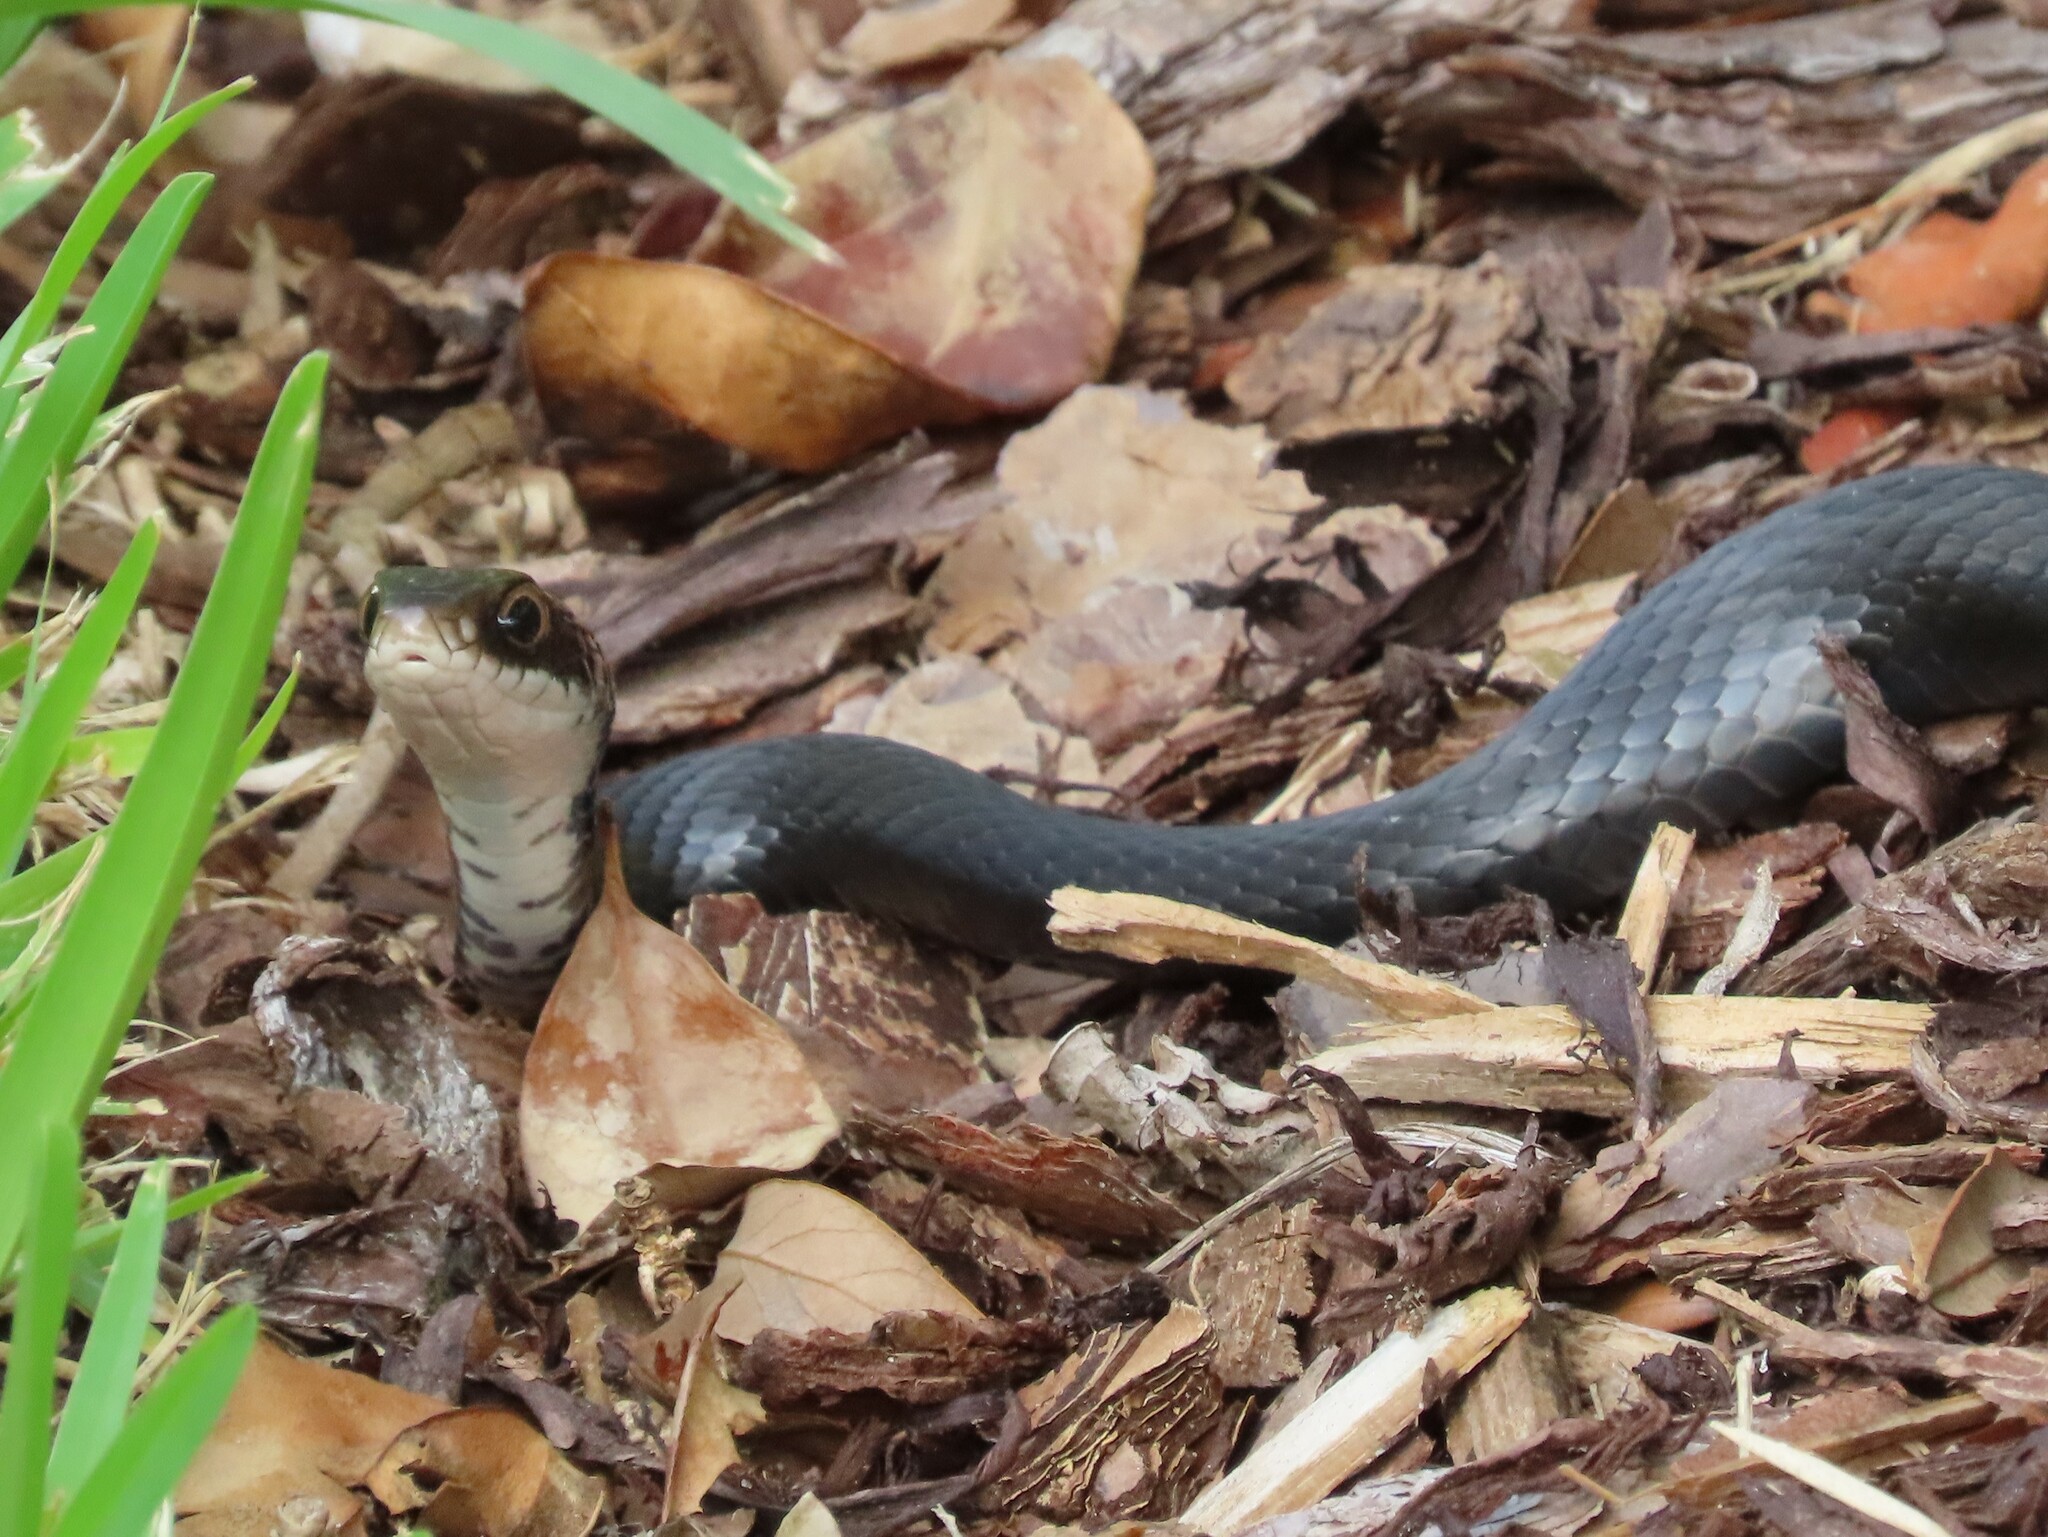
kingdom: Animalia
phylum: Chordata
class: Squamata
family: Colubridae
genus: Coluber
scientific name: Coluber constrictor
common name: Eastern racer
